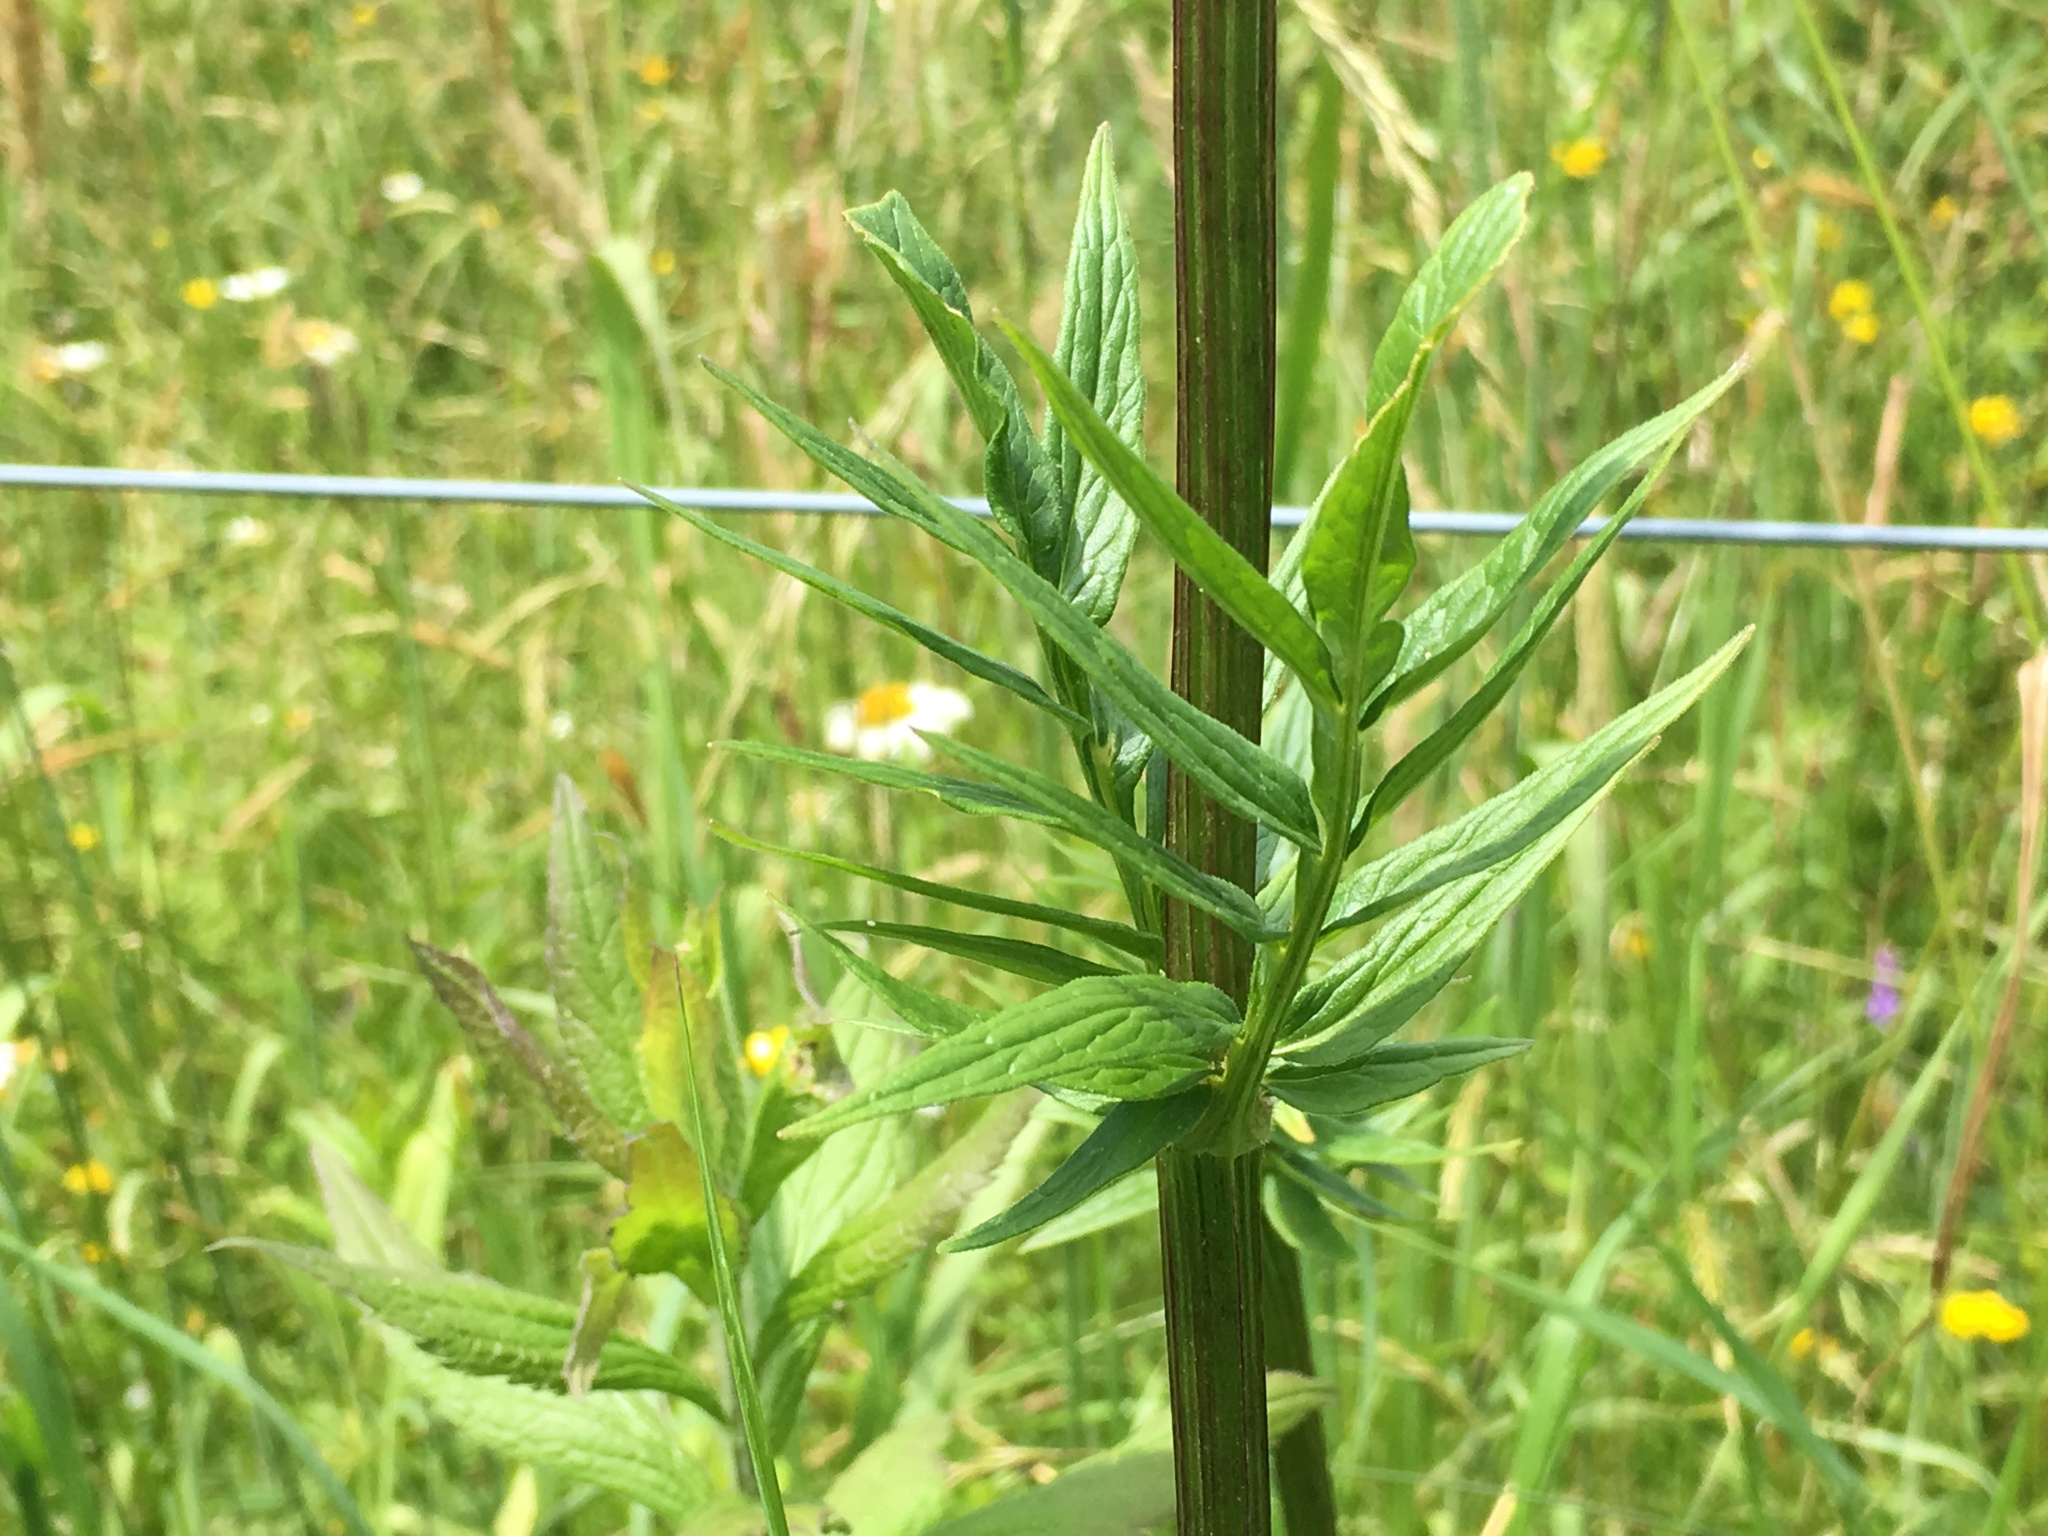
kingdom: Plantae
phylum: Tracheophyta
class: Magnoliopsida
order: Dipsacales
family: Caprifoliaceae
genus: Valeriana
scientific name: Valeriana officinalis
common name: Common valerian
